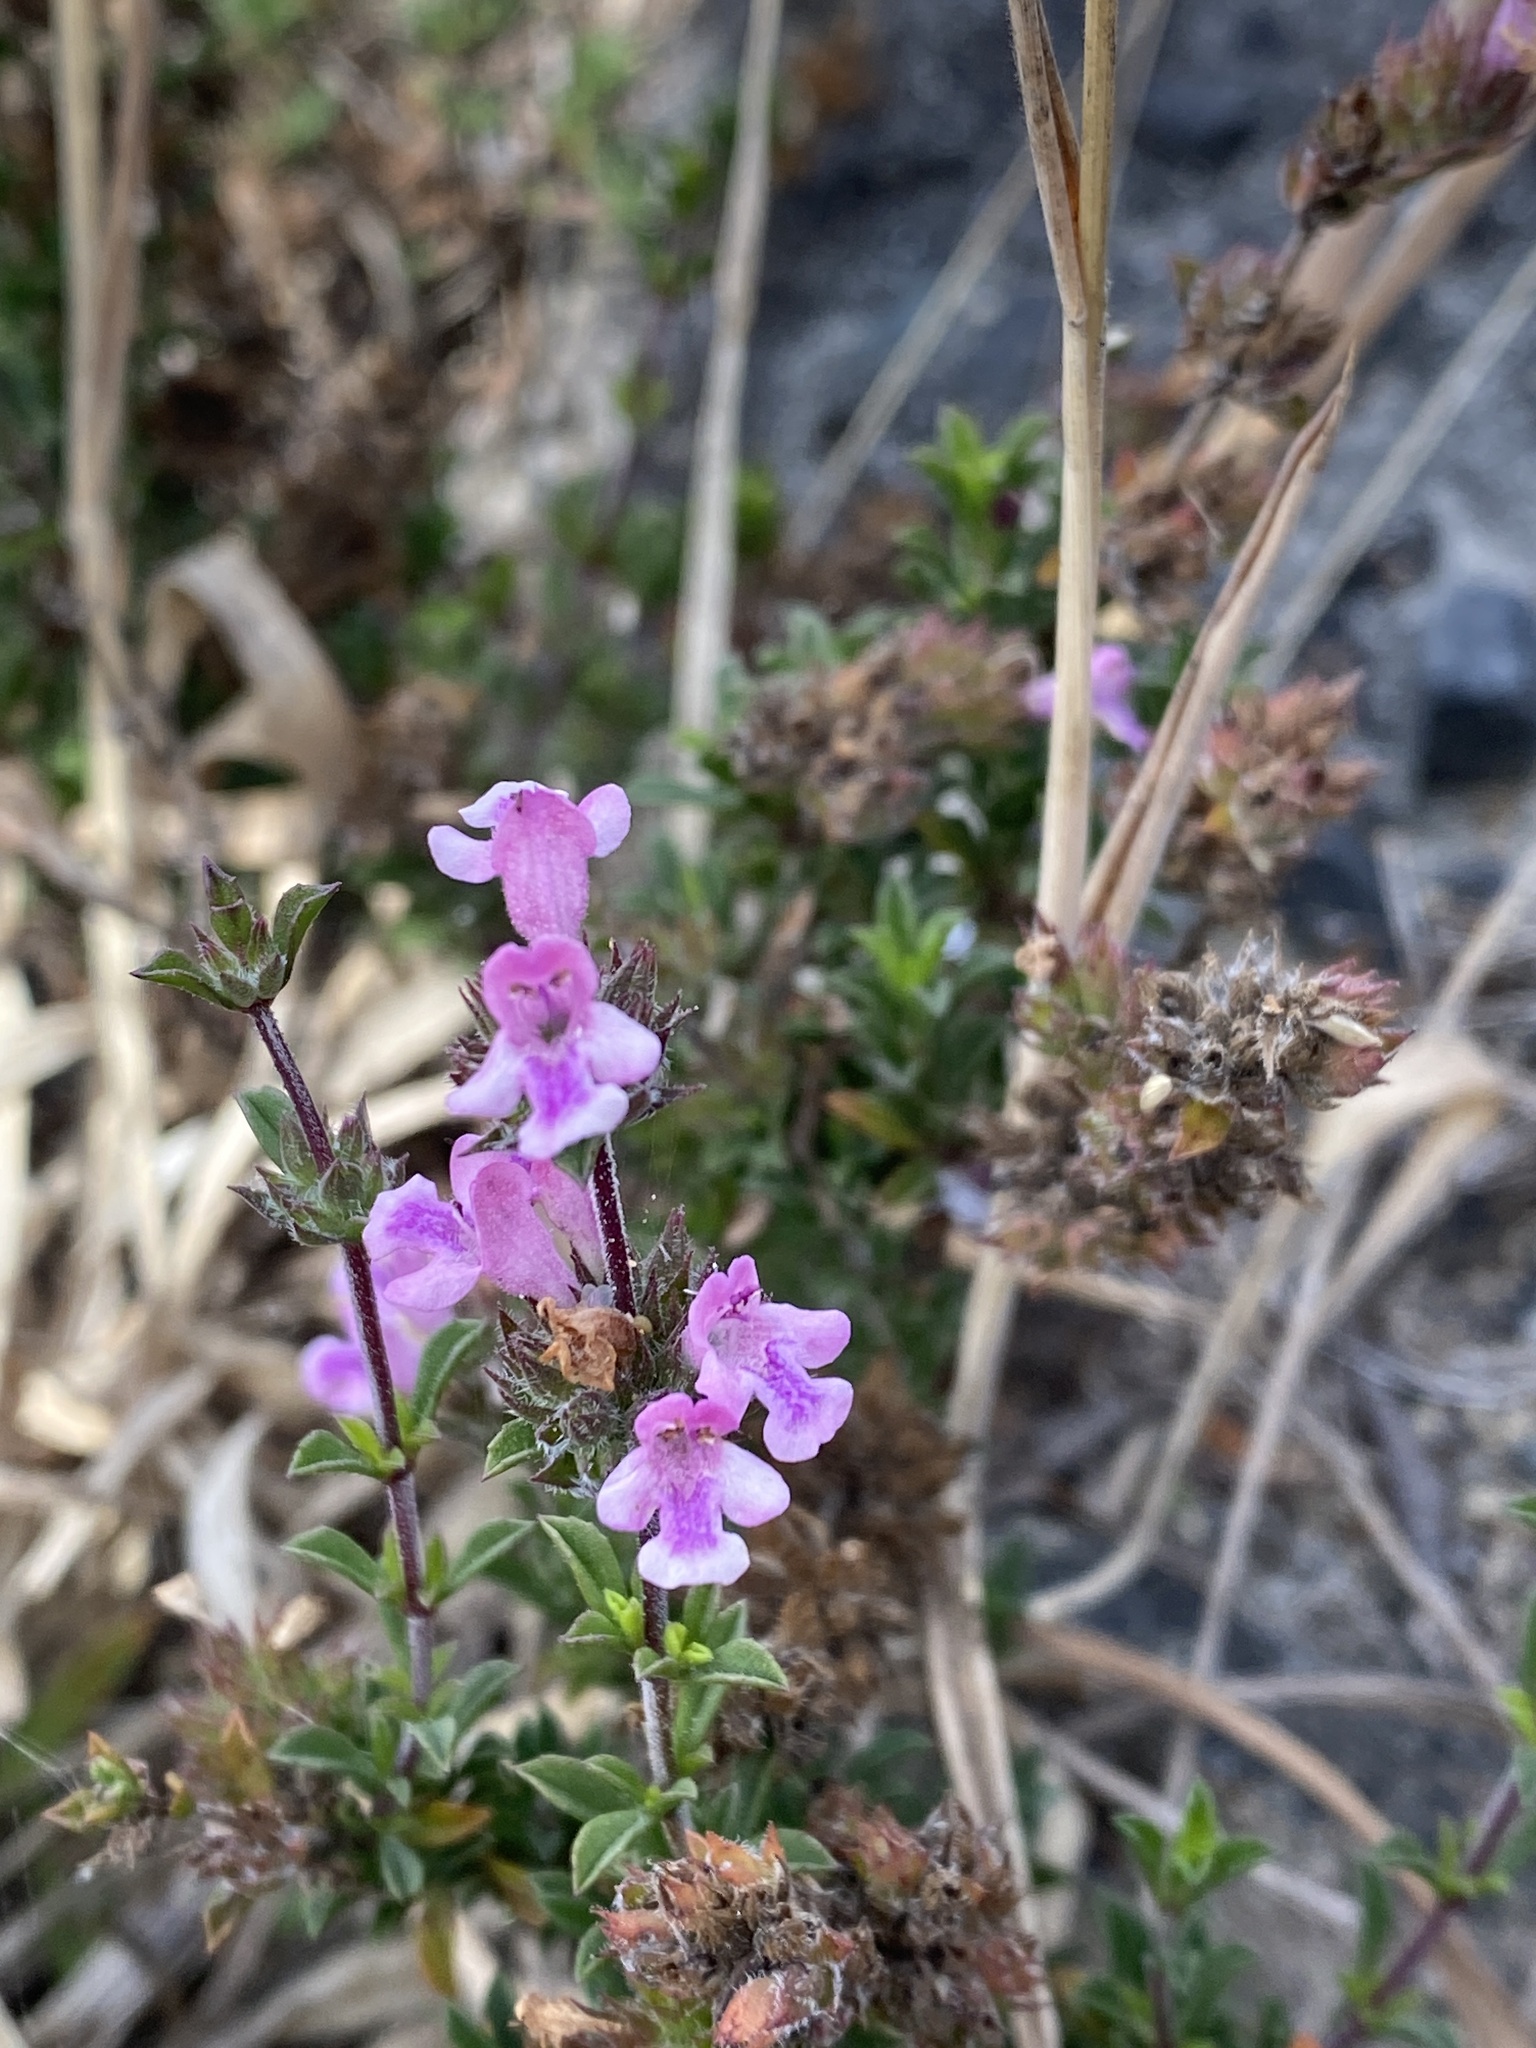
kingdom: Plantae
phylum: Tracheophyta
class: Magnoliopsida
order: Lamiales
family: Lamiaceae
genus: Satureja
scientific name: Satureja thymbra
